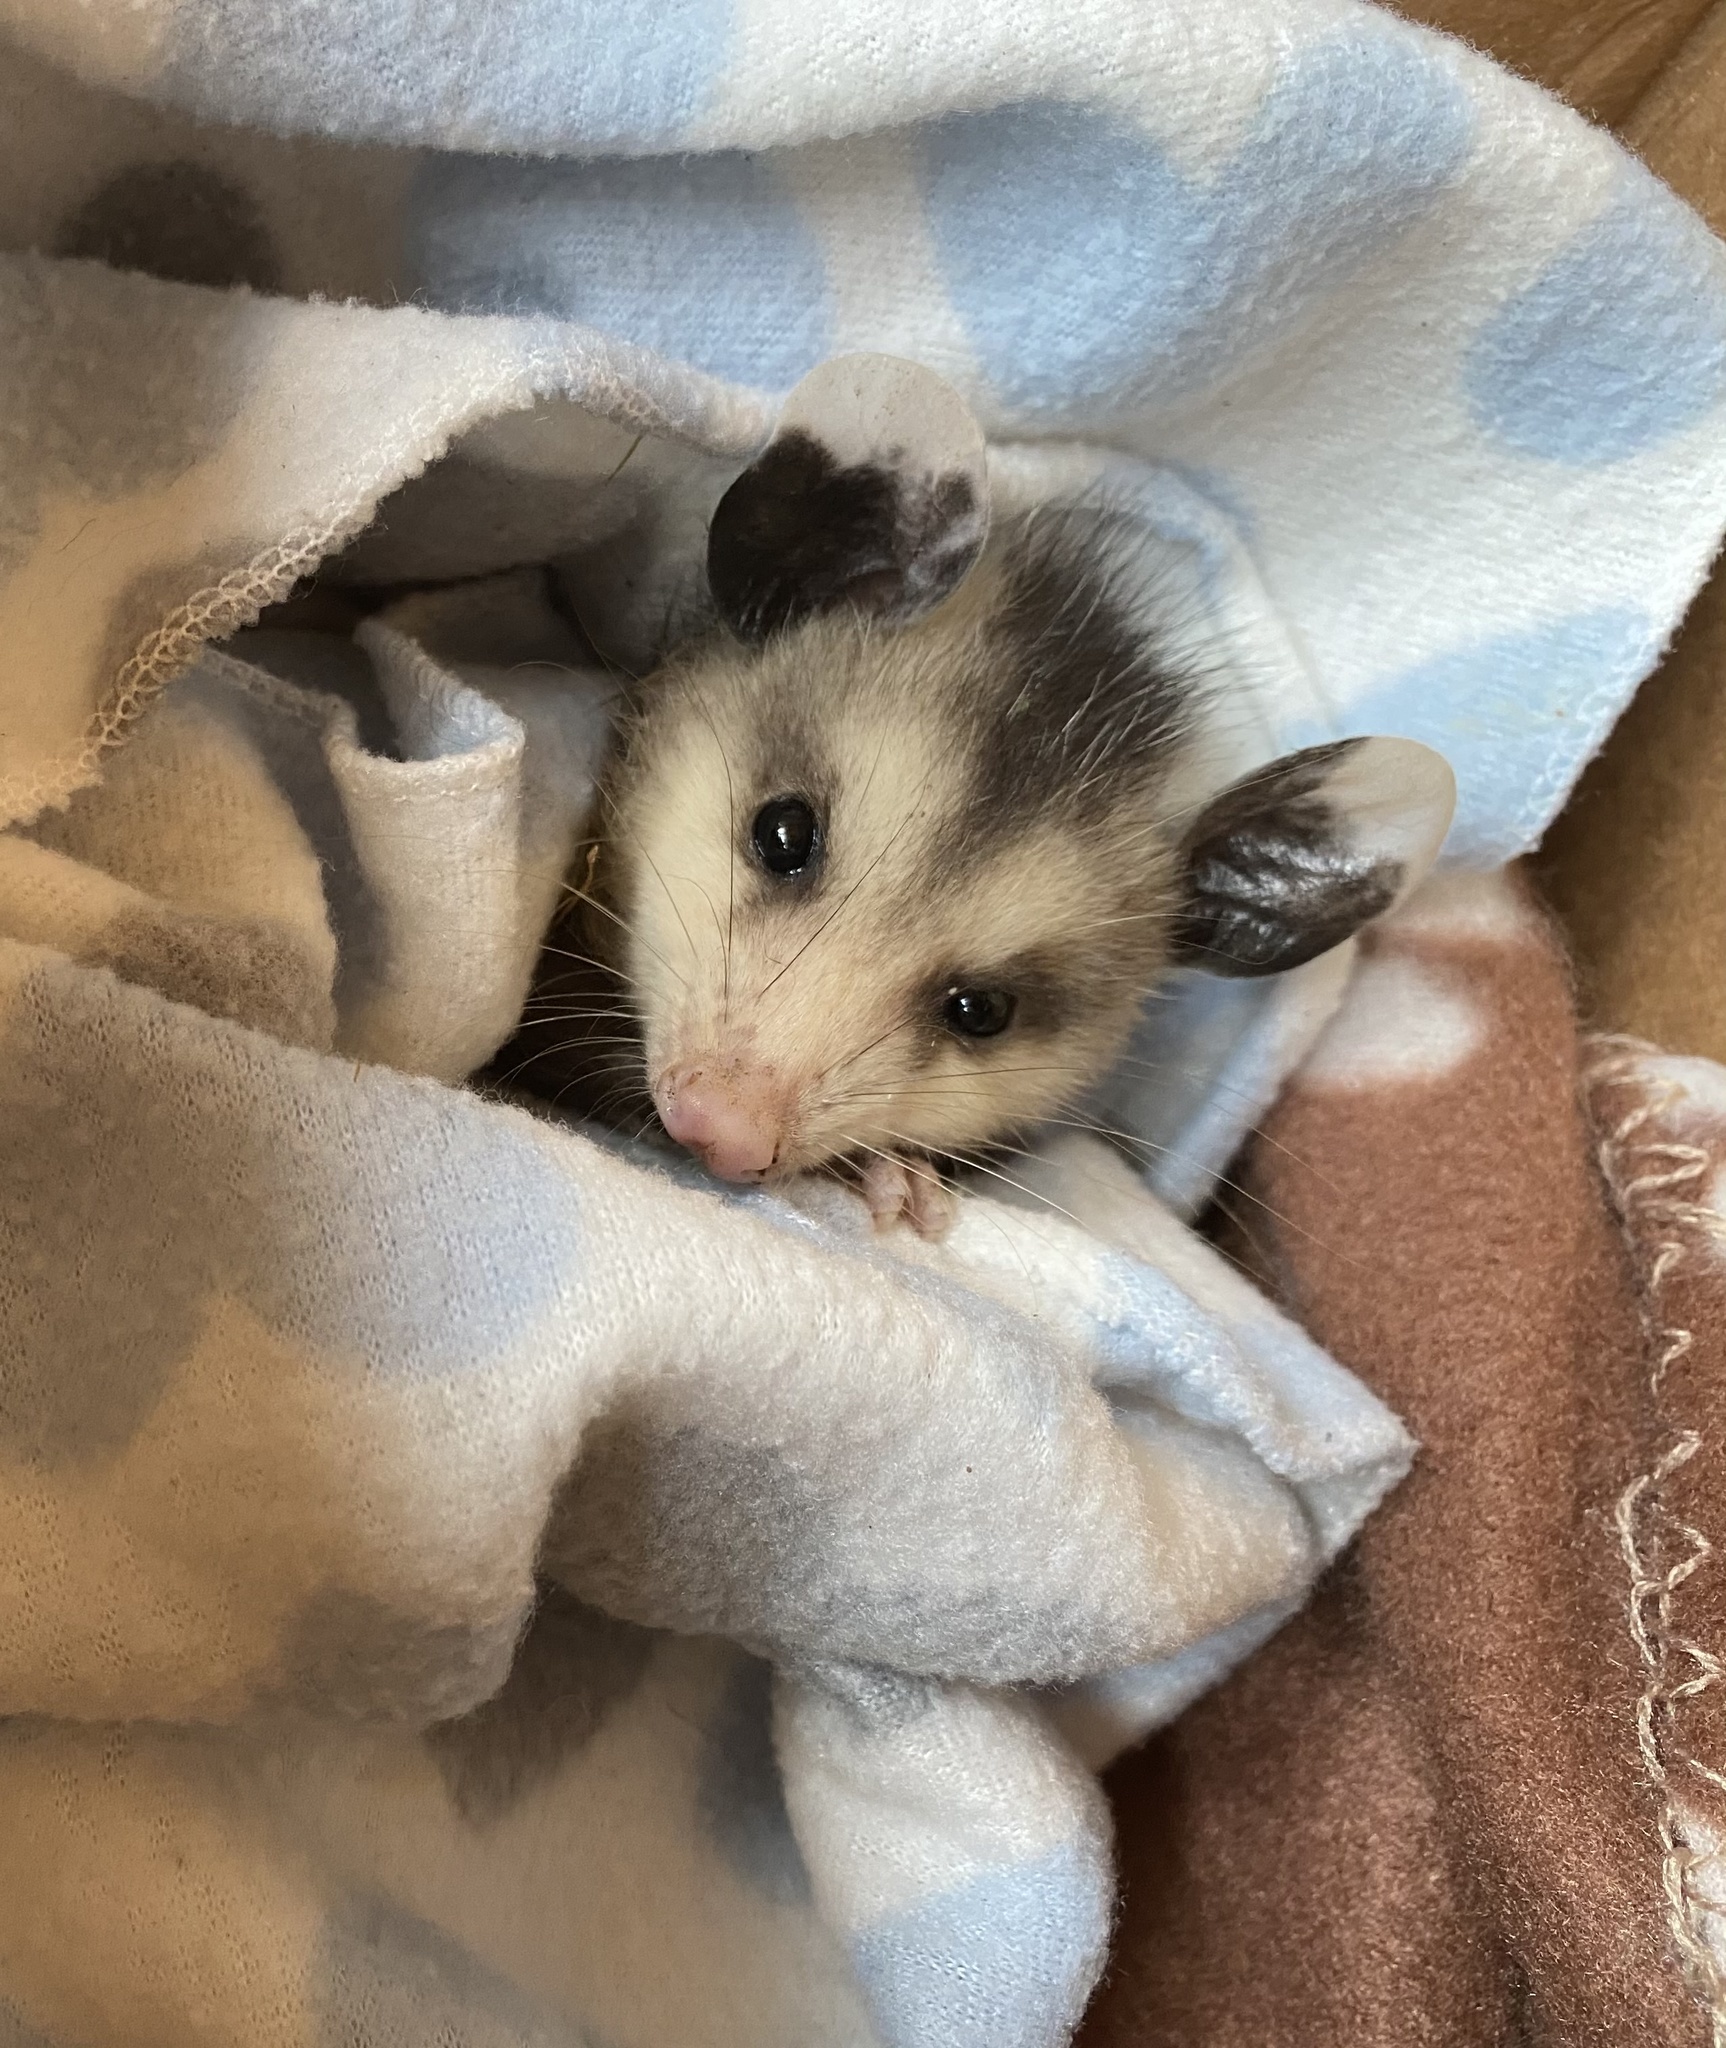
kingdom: Animalia
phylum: Chordata
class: Mammalia
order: Didelphimorphia
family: Didelphidae
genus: Didelphis
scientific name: Didelphis virginiana
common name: Virginia opossum
